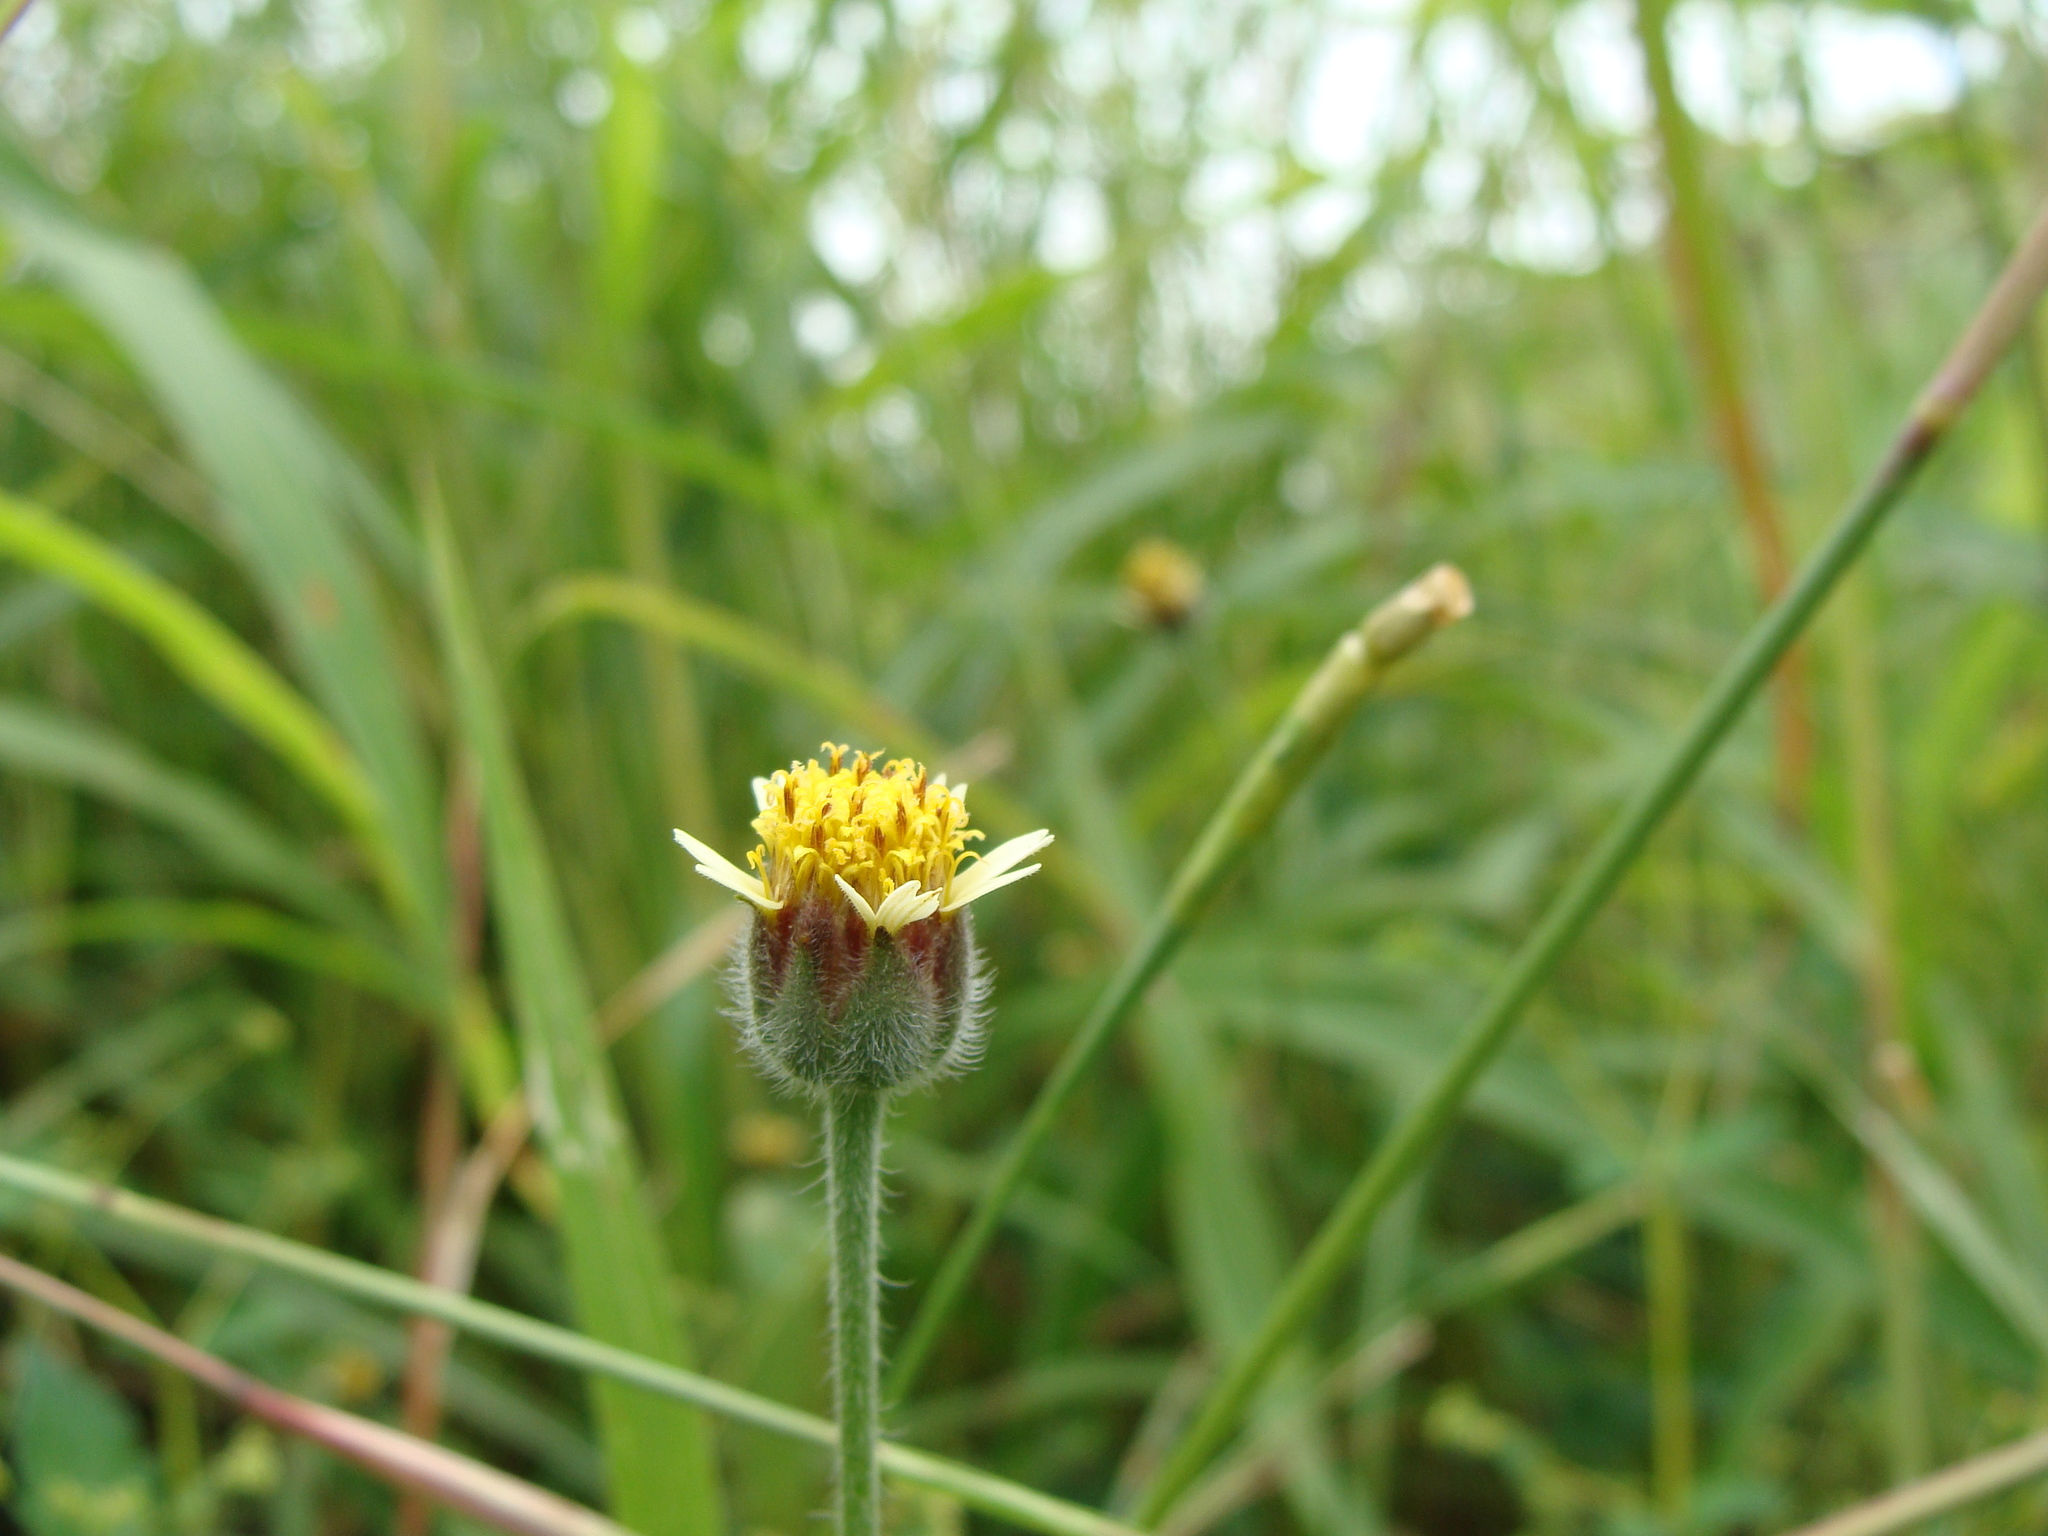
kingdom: Plantae
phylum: Tracheophyta
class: Magnoliopsida
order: Asterales
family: Asteraceae
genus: Tridax
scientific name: Tridax procumbens
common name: Coatbuttons
